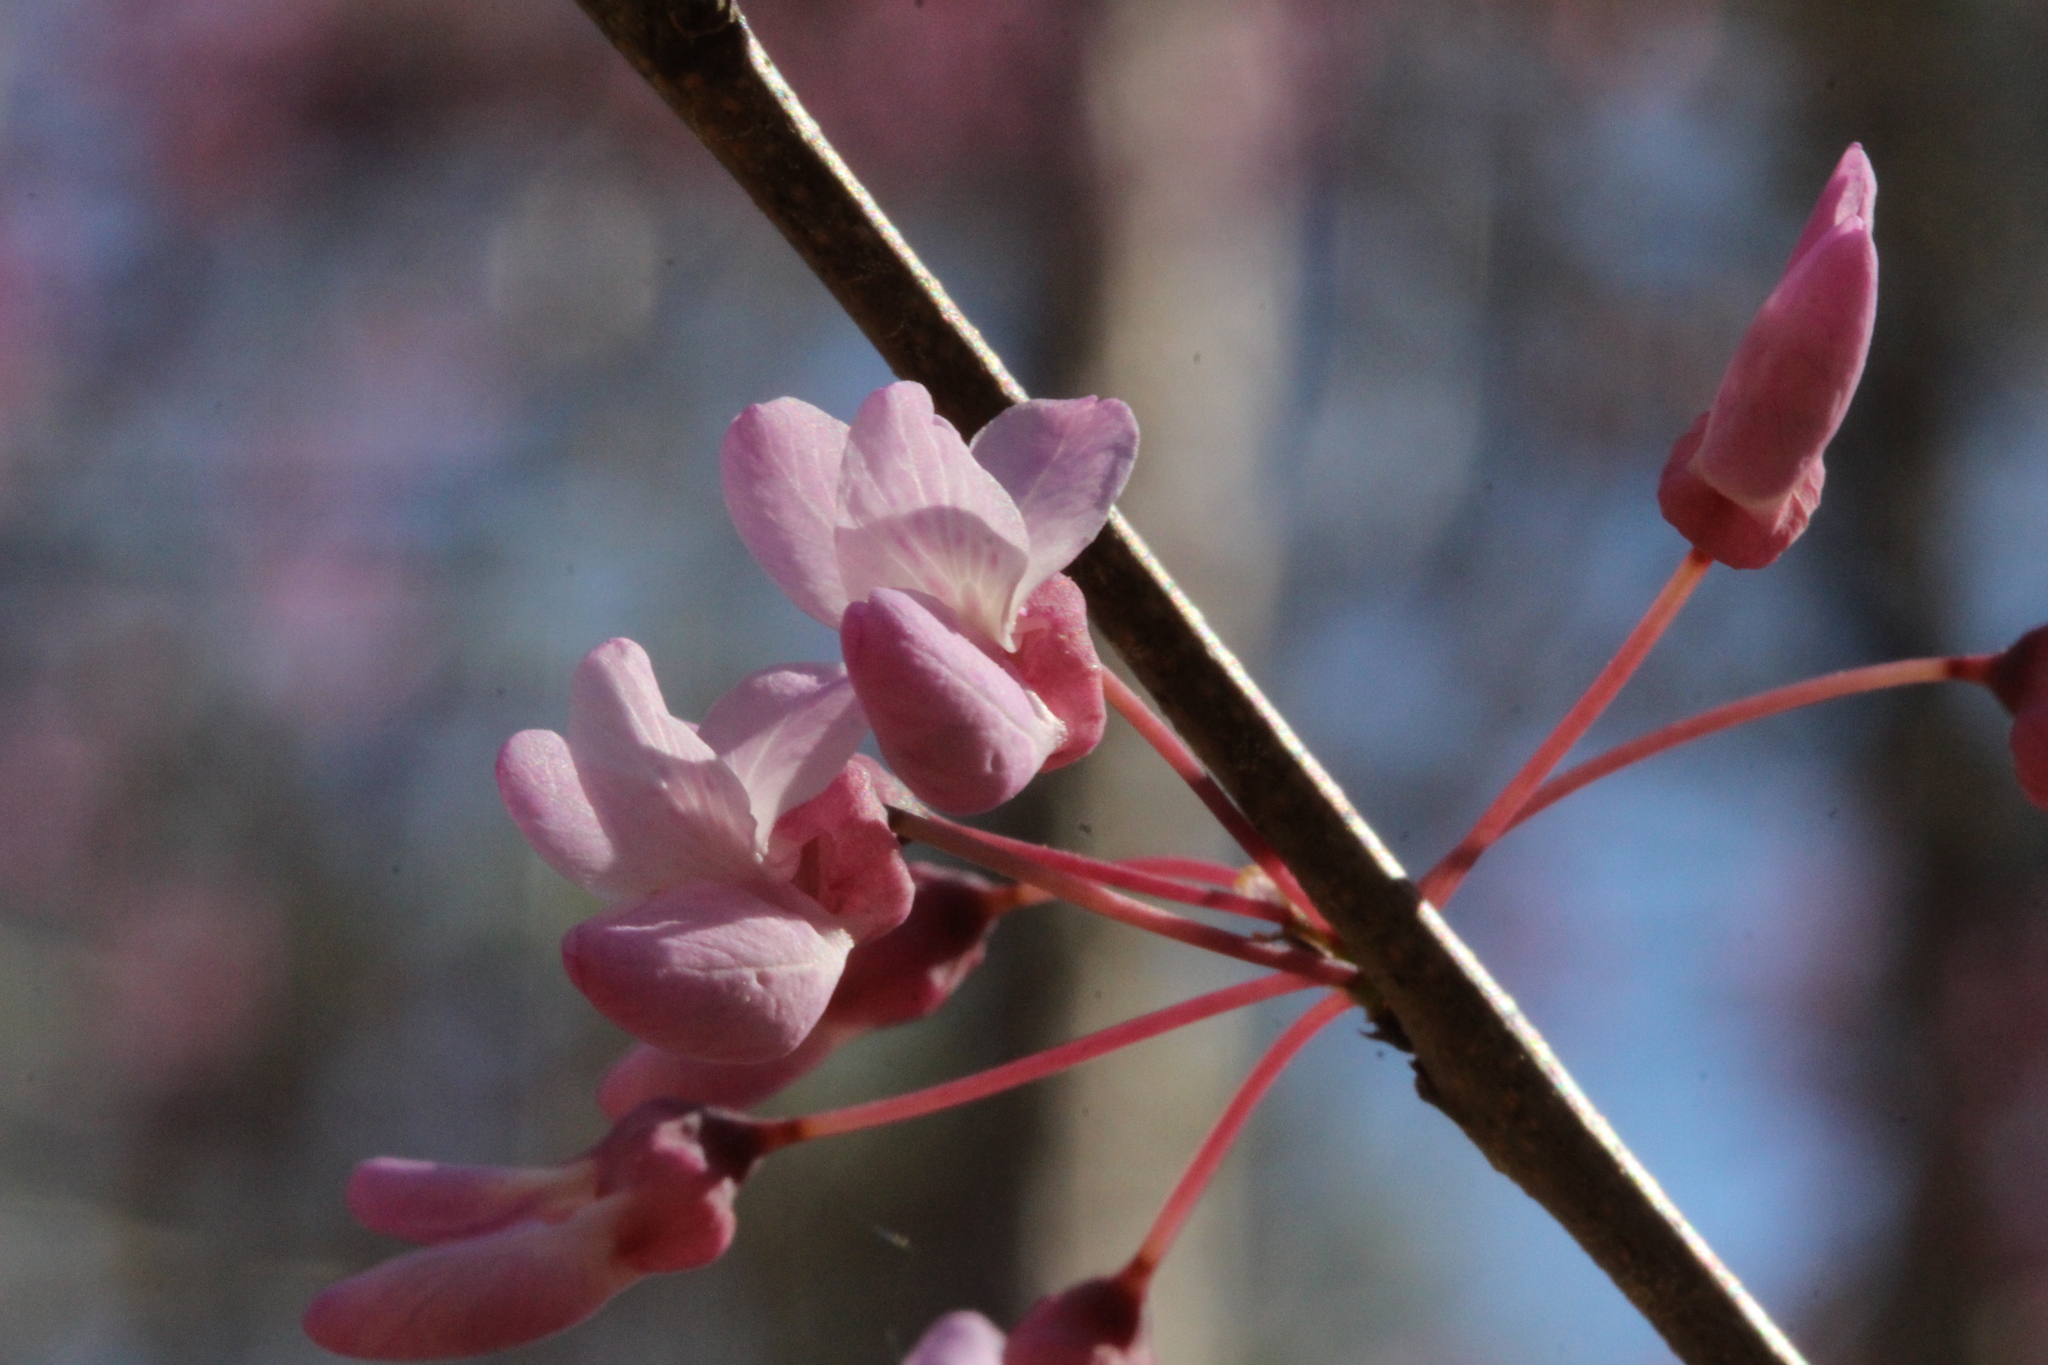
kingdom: Plantae
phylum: Tracheophyta
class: Magnoliopsida
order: Fabales
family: Fabaceae
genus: Cercis
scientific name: Cercis canadensis
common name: Eastern redbud
